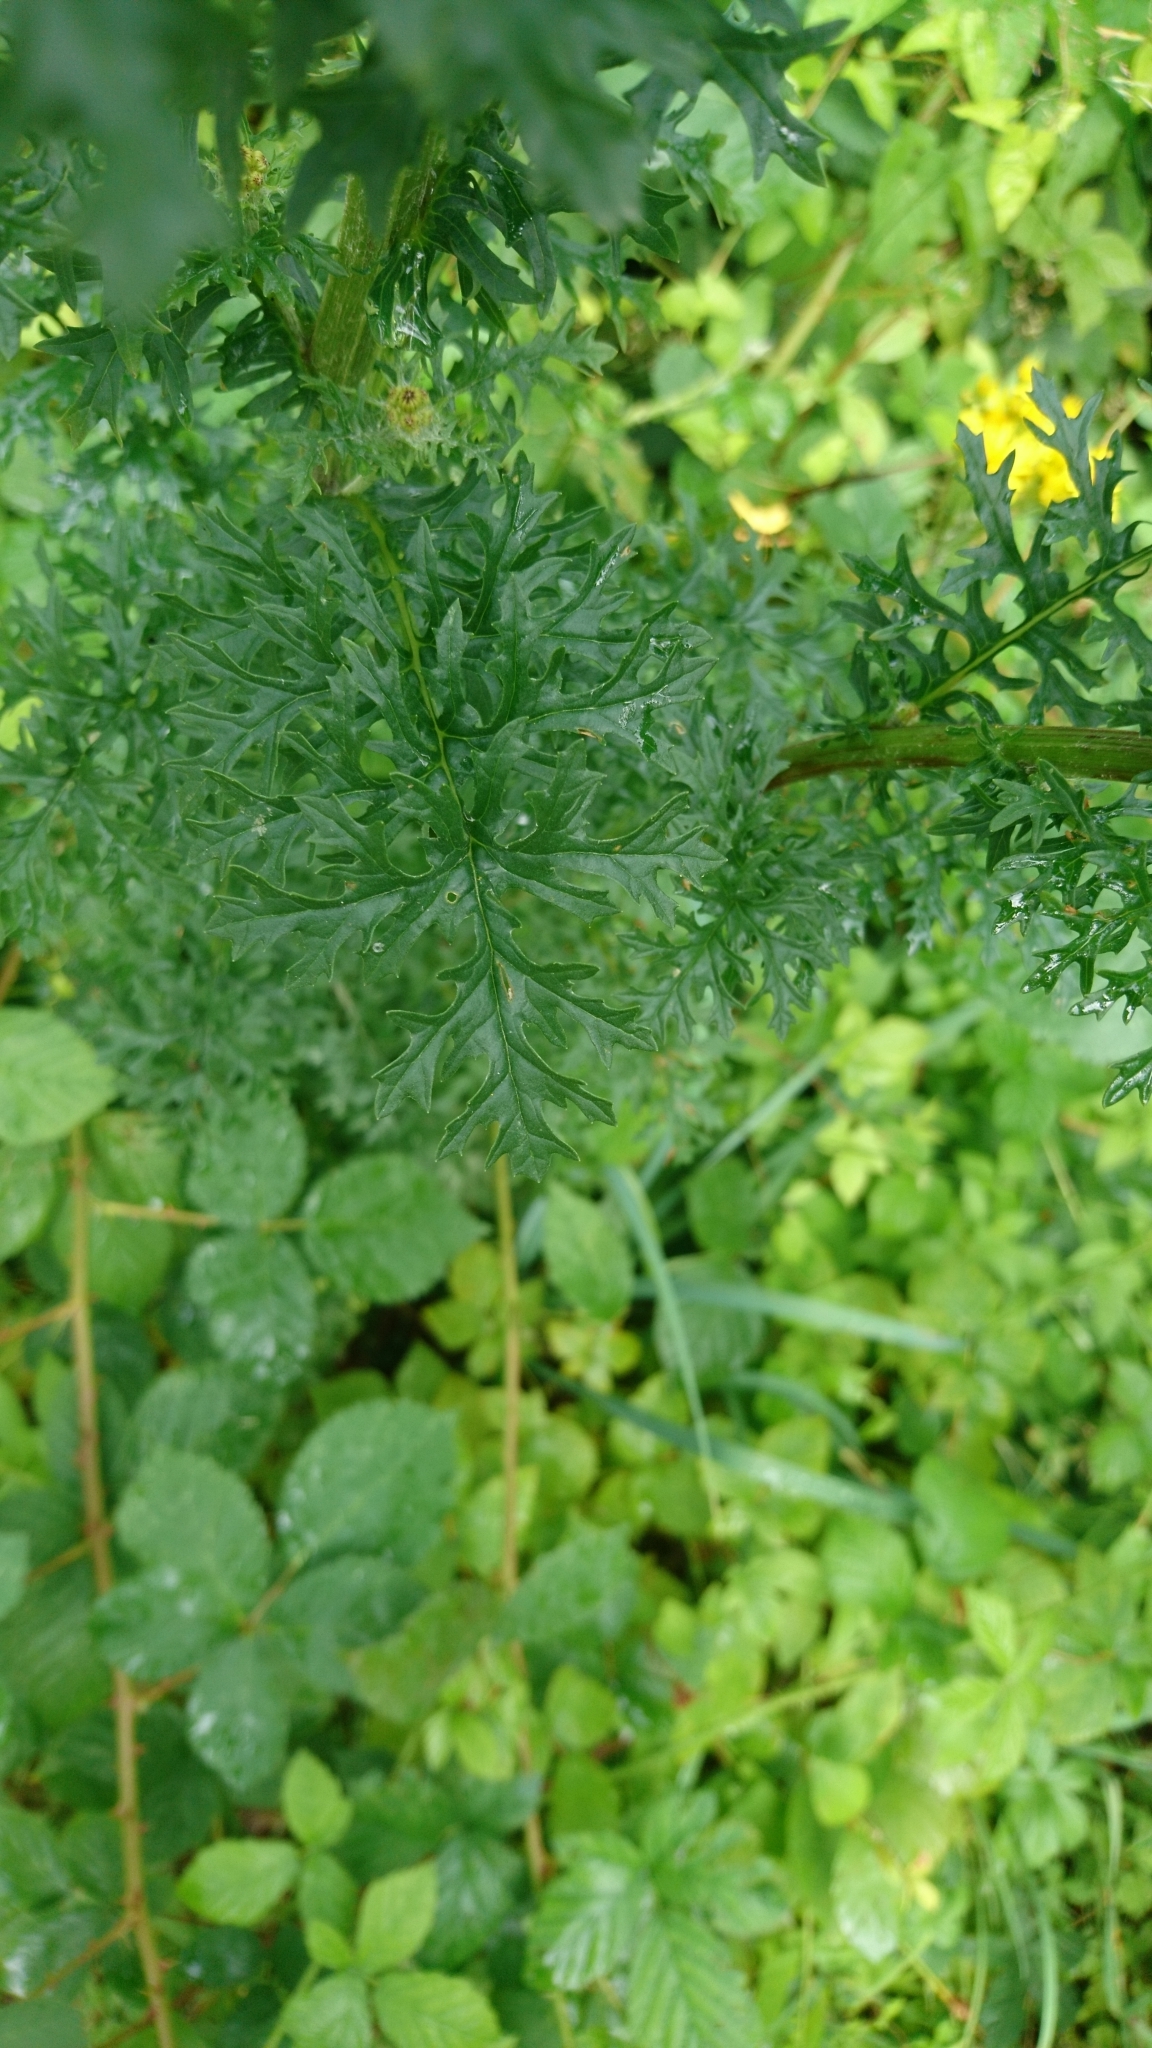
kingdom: Plantae
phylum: Tracheophyta
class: Magnoliopsida
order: Asterales
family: Asteraceae
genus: Jacobaea
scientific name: Jacobaea vulgaris
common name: Stinking willie
